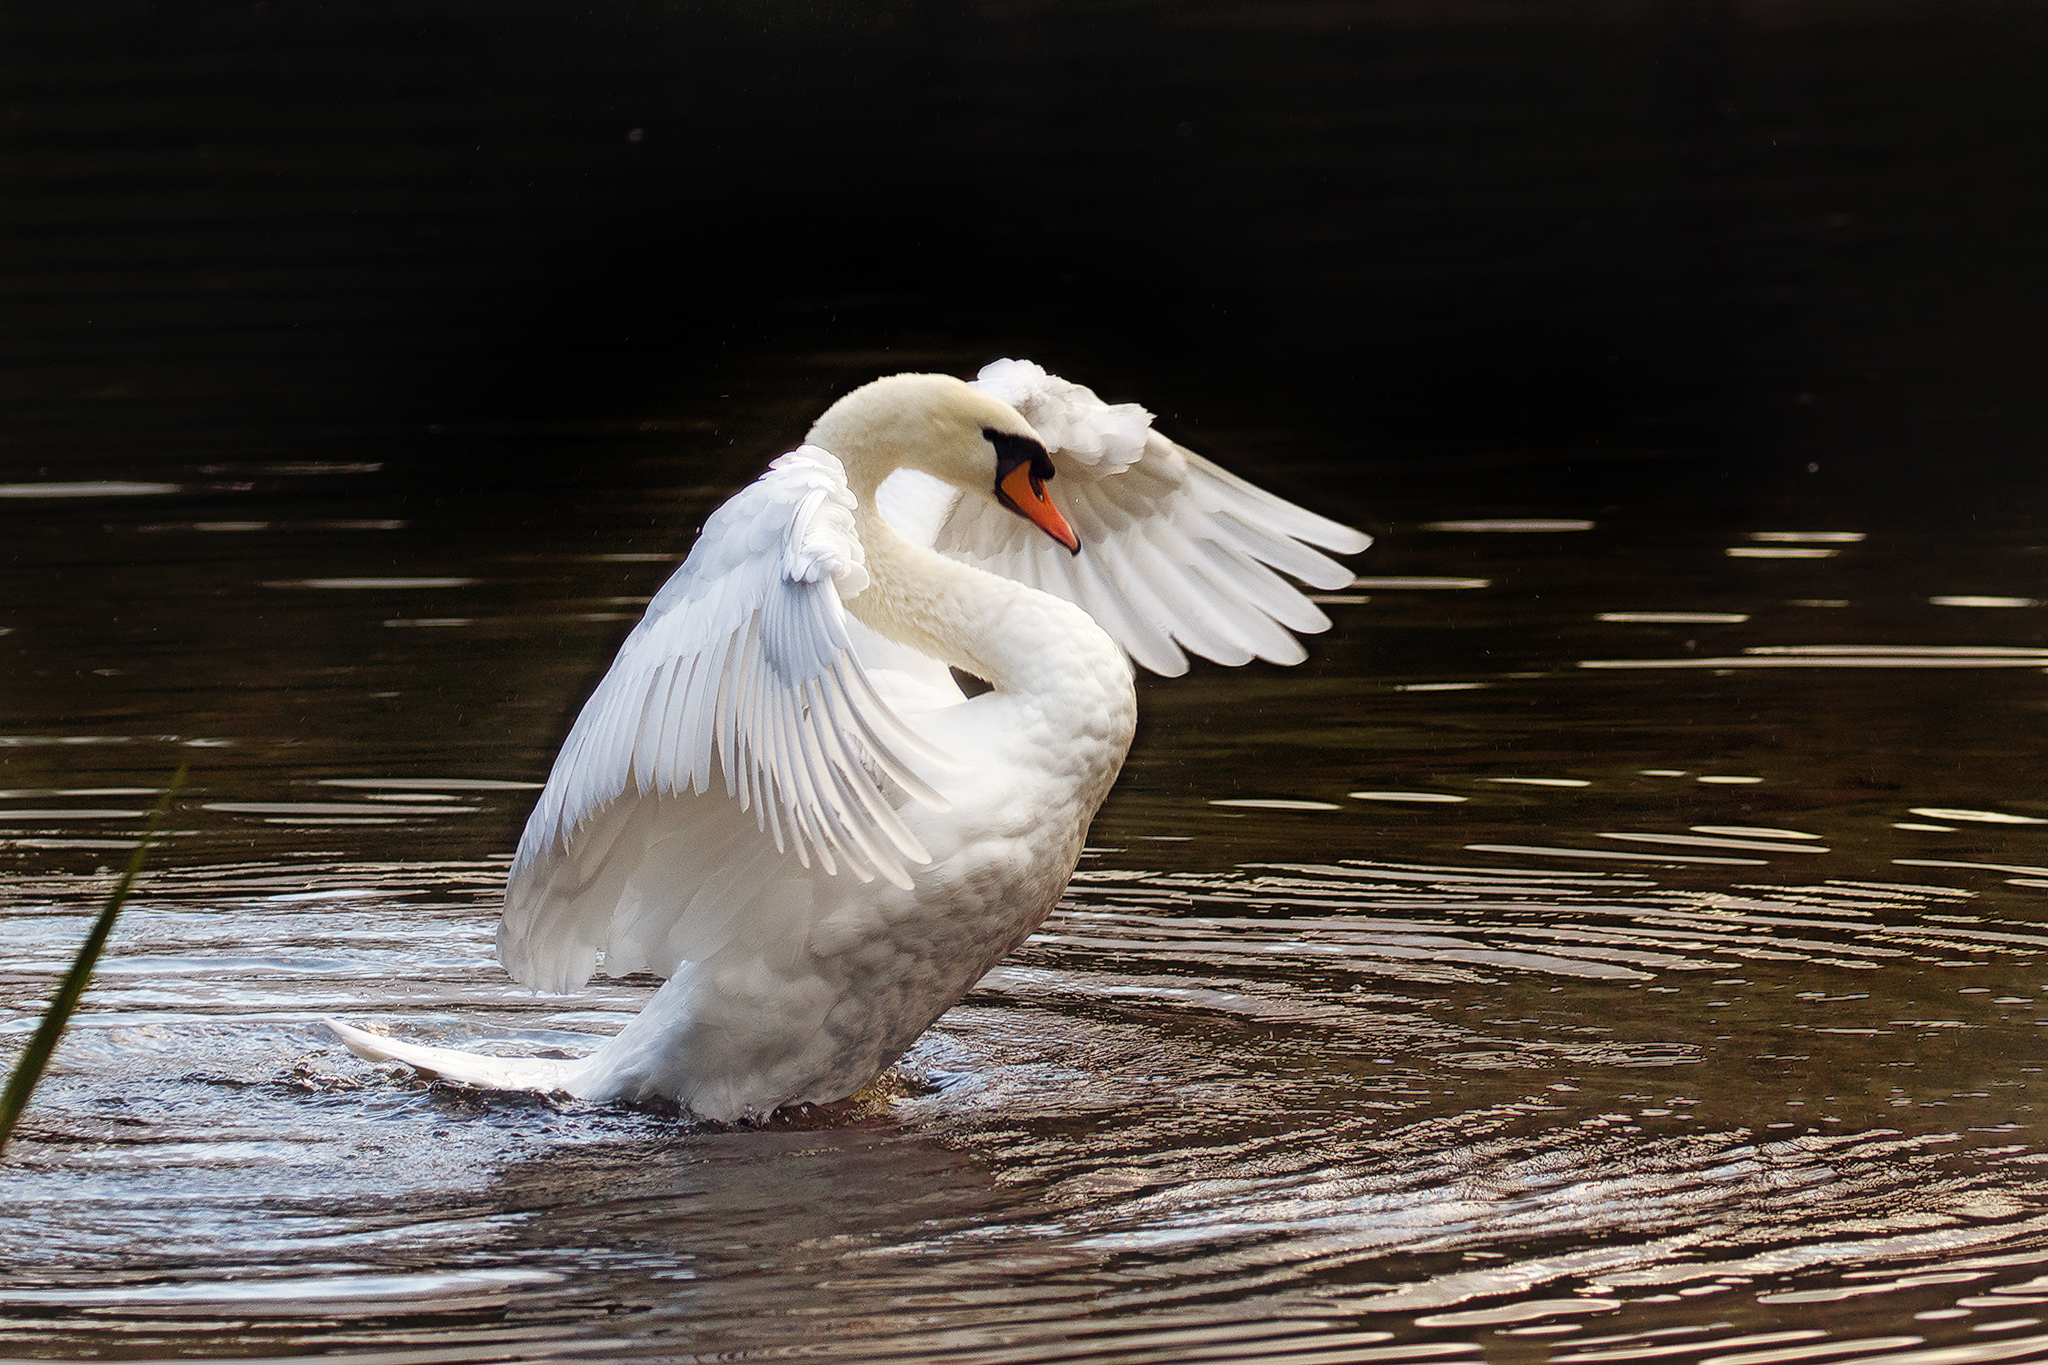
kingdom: Animalia
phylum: Chordata
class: Aves
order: Anseriformes
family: Anatidae
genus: Cygnus
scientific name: Cygnus olor
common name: Mute swan
